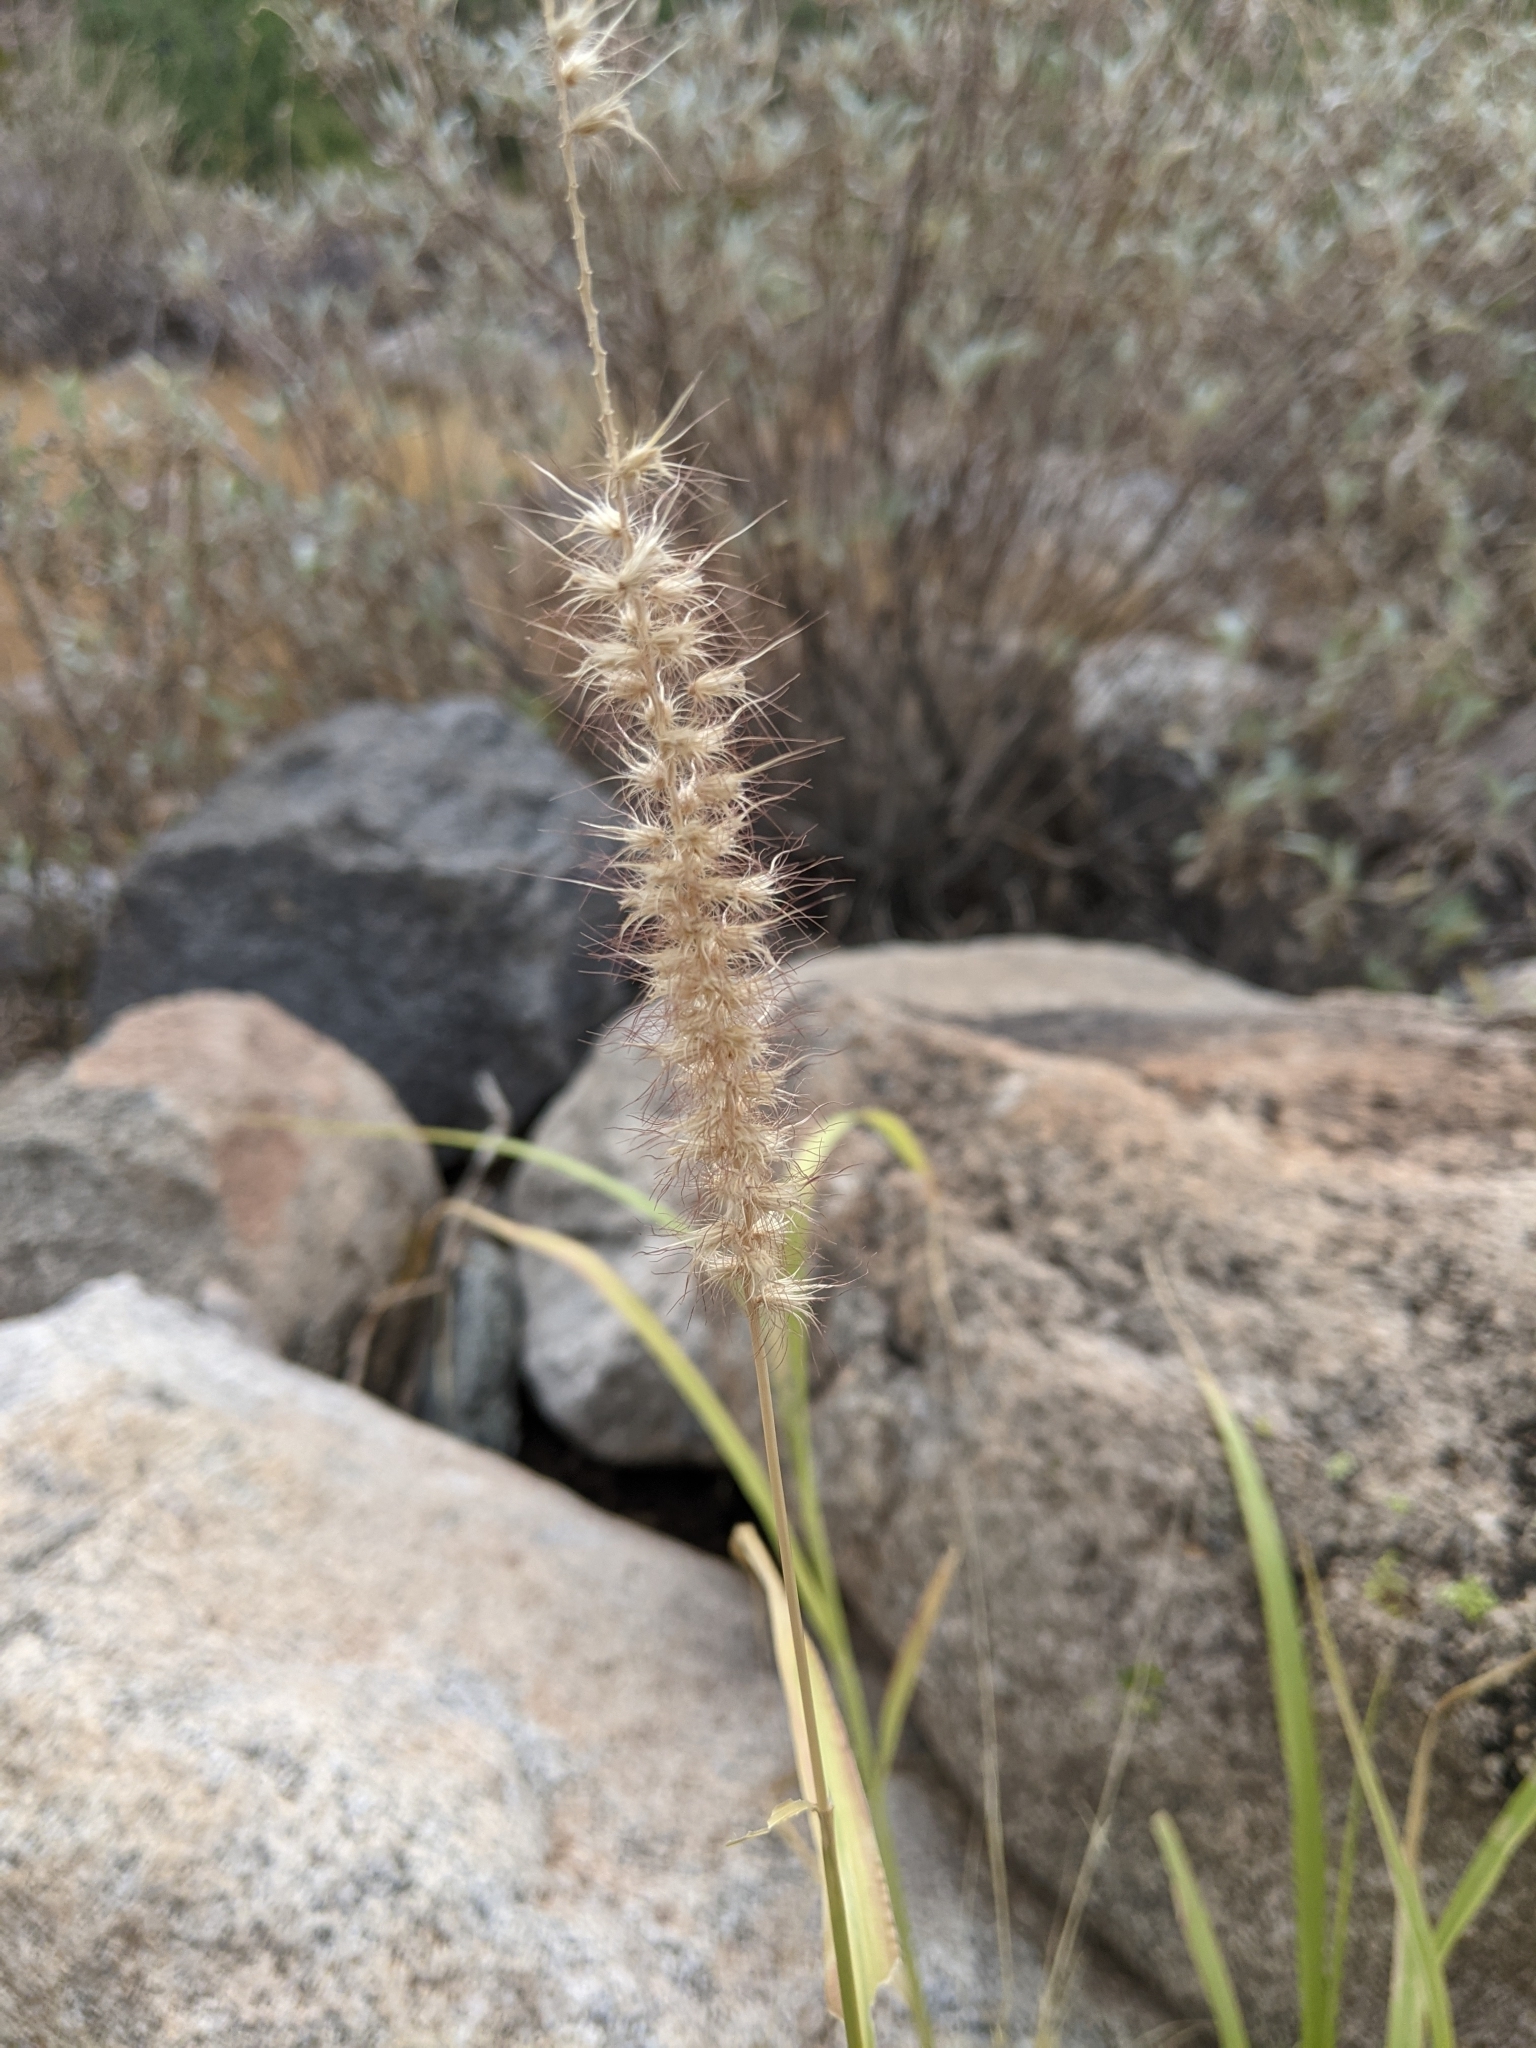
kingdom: Plantae
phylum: Tracheophyta
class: Liliopsida
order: Poales
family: Poaceae
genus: Cenchrus
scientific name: Cenchrus ciliaris
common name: Buffelgrass
